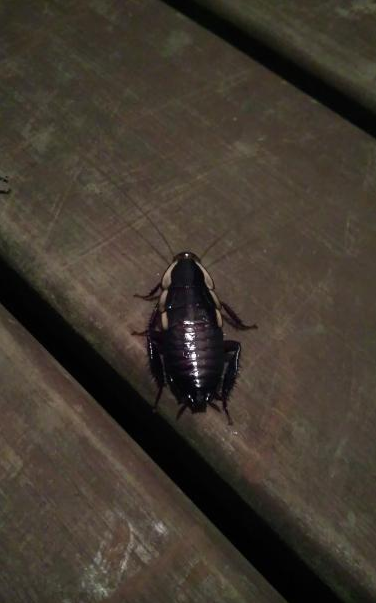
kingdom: Animalia
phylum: Arthropoda
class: Insecta
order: Blattodea
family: Blattidae
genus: Drymaplaneta
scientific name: Drymaplaneta semivitta
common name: Gisborne cockroach
